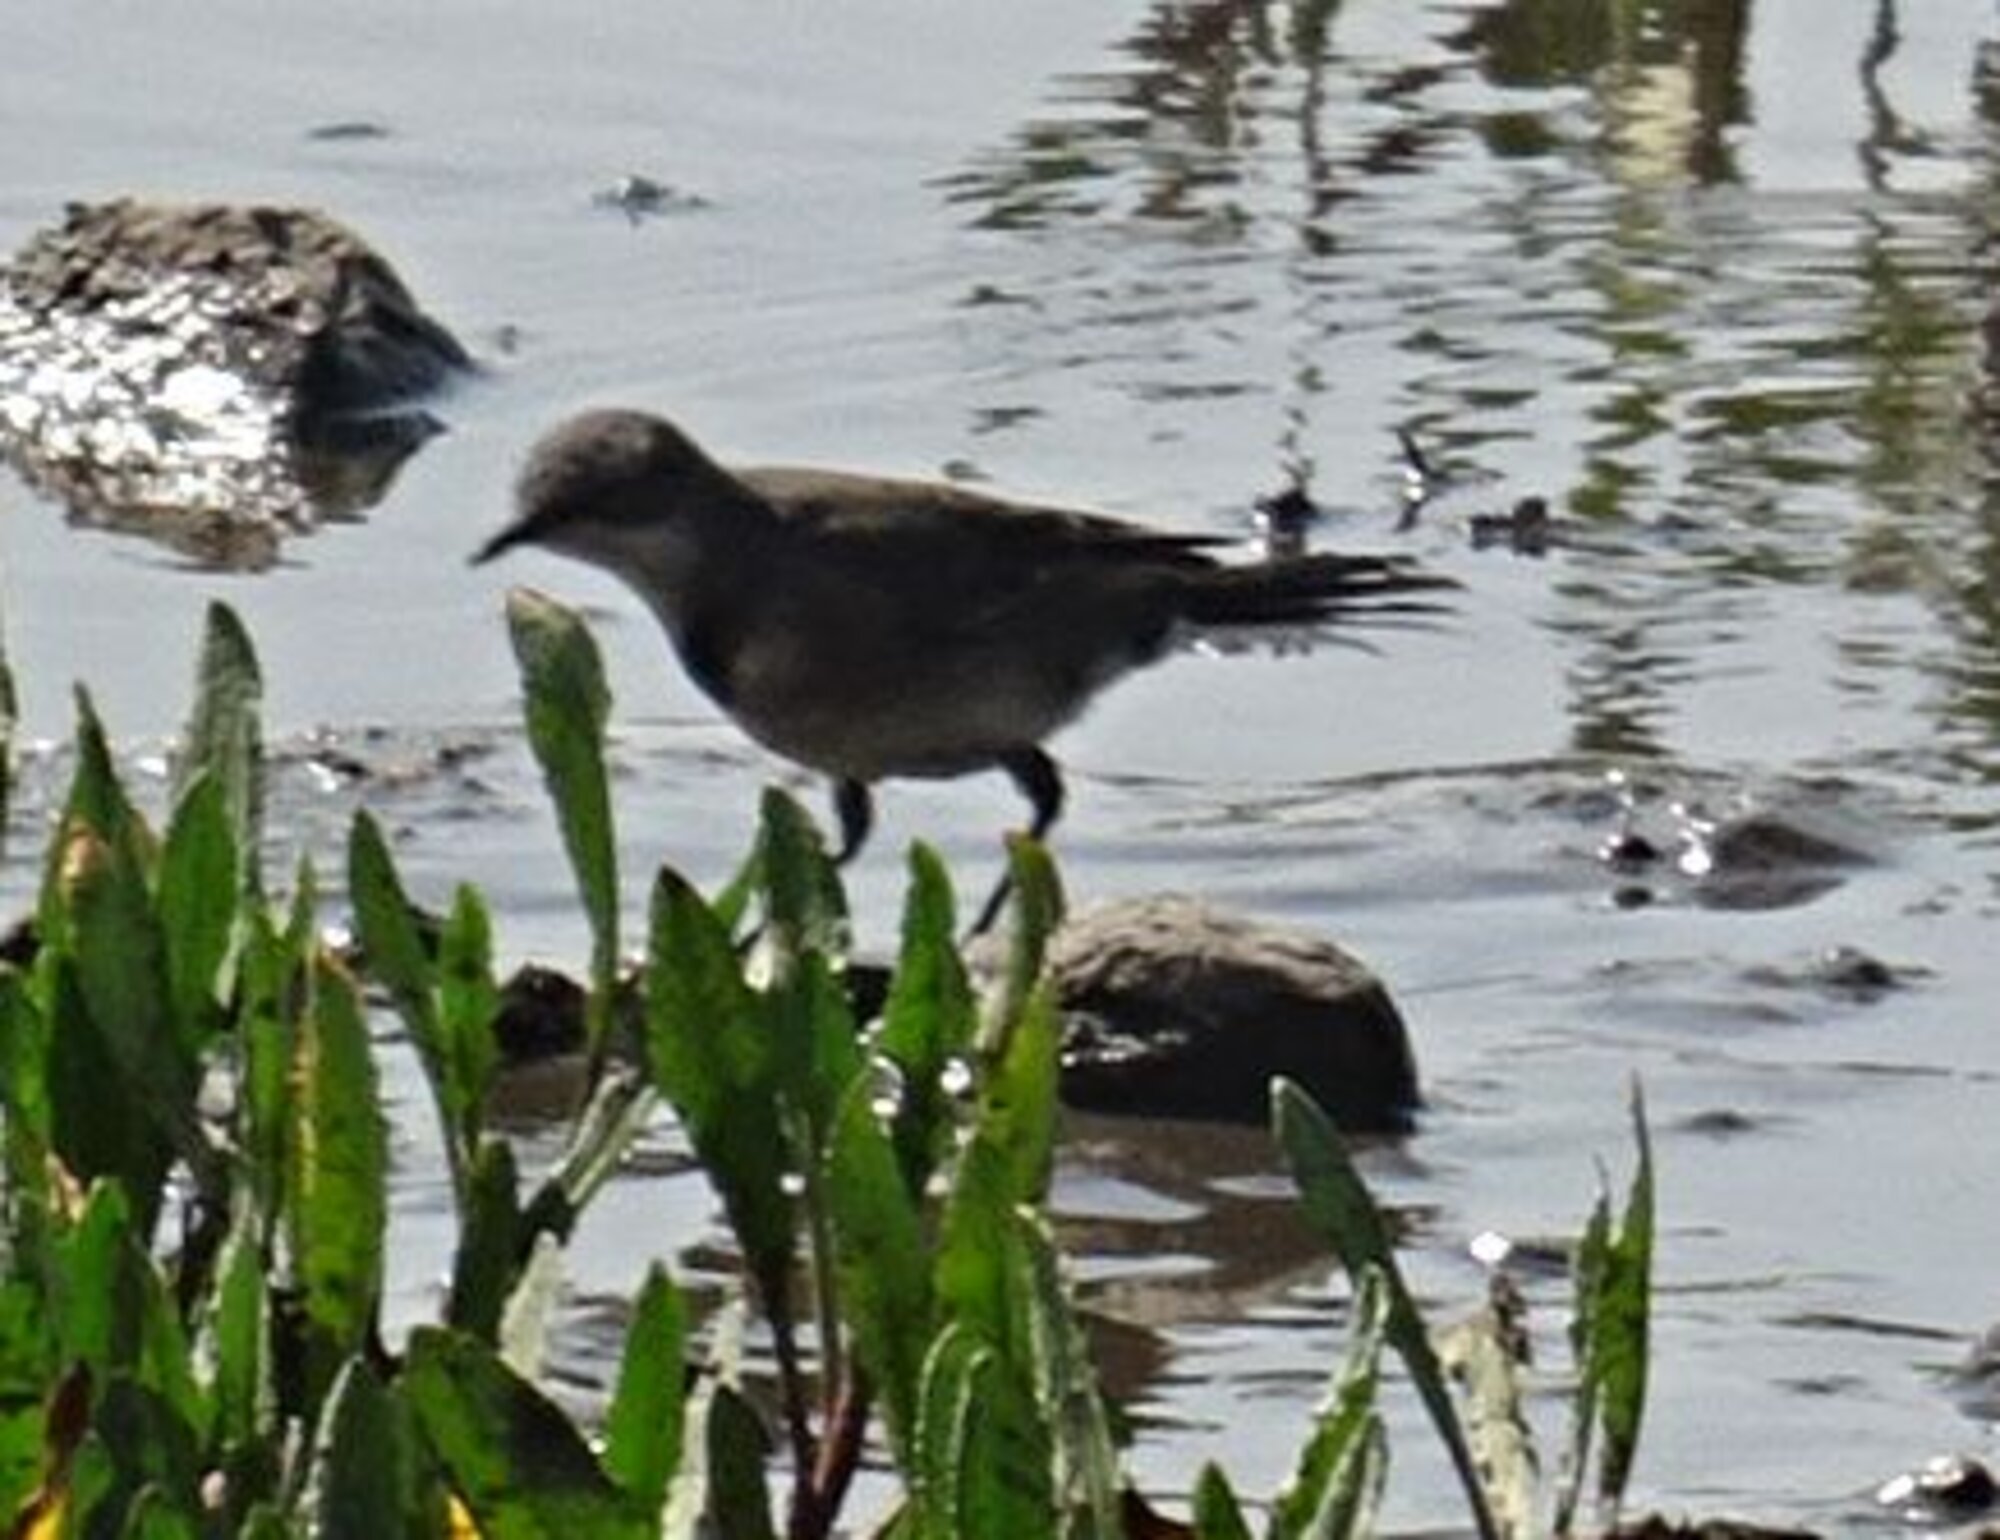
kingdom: Animalia
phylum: Chordata
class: Aves
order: Passeriformes
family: Motacillidae
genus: Motacilla
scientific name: Motacilla capensis
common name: Cape wagtail
